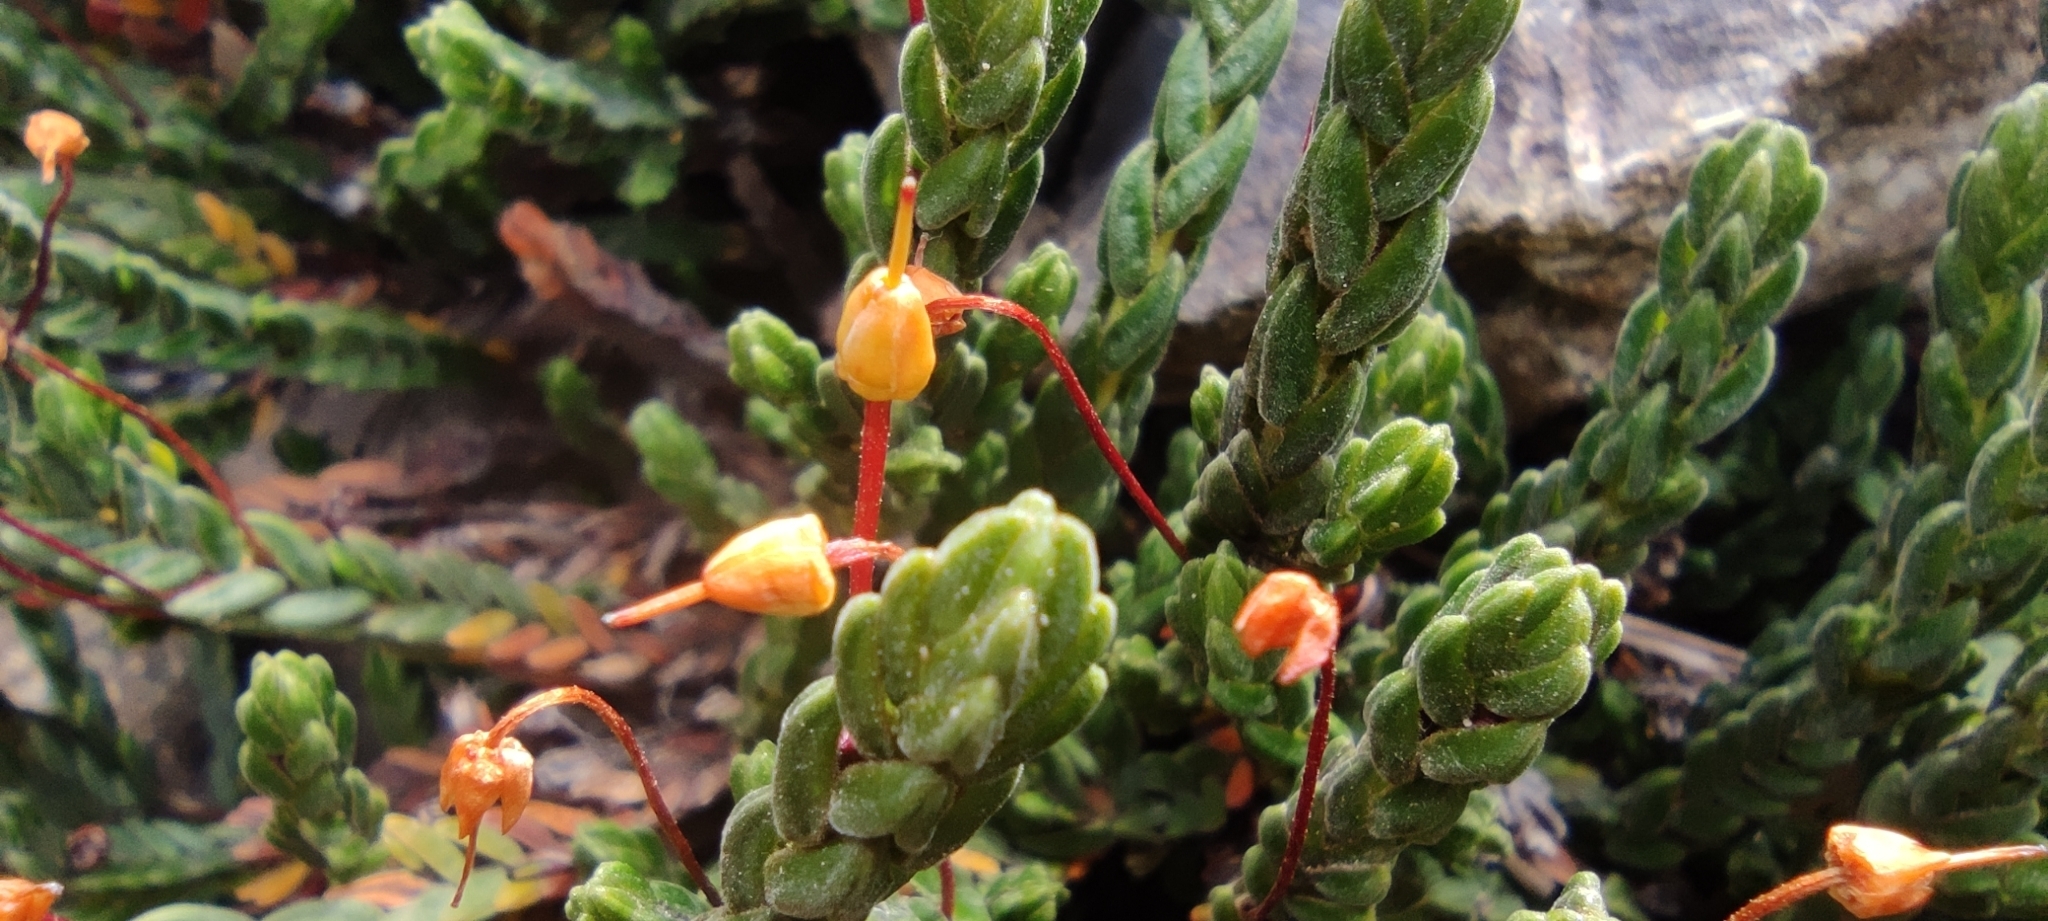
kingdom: Plantae
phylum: Tracheophyta
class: Magnoliopsida
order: Ericales
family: Ericaceae
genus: Cassiope
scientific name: Cassiope tetragona
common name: Arctic bell heather
